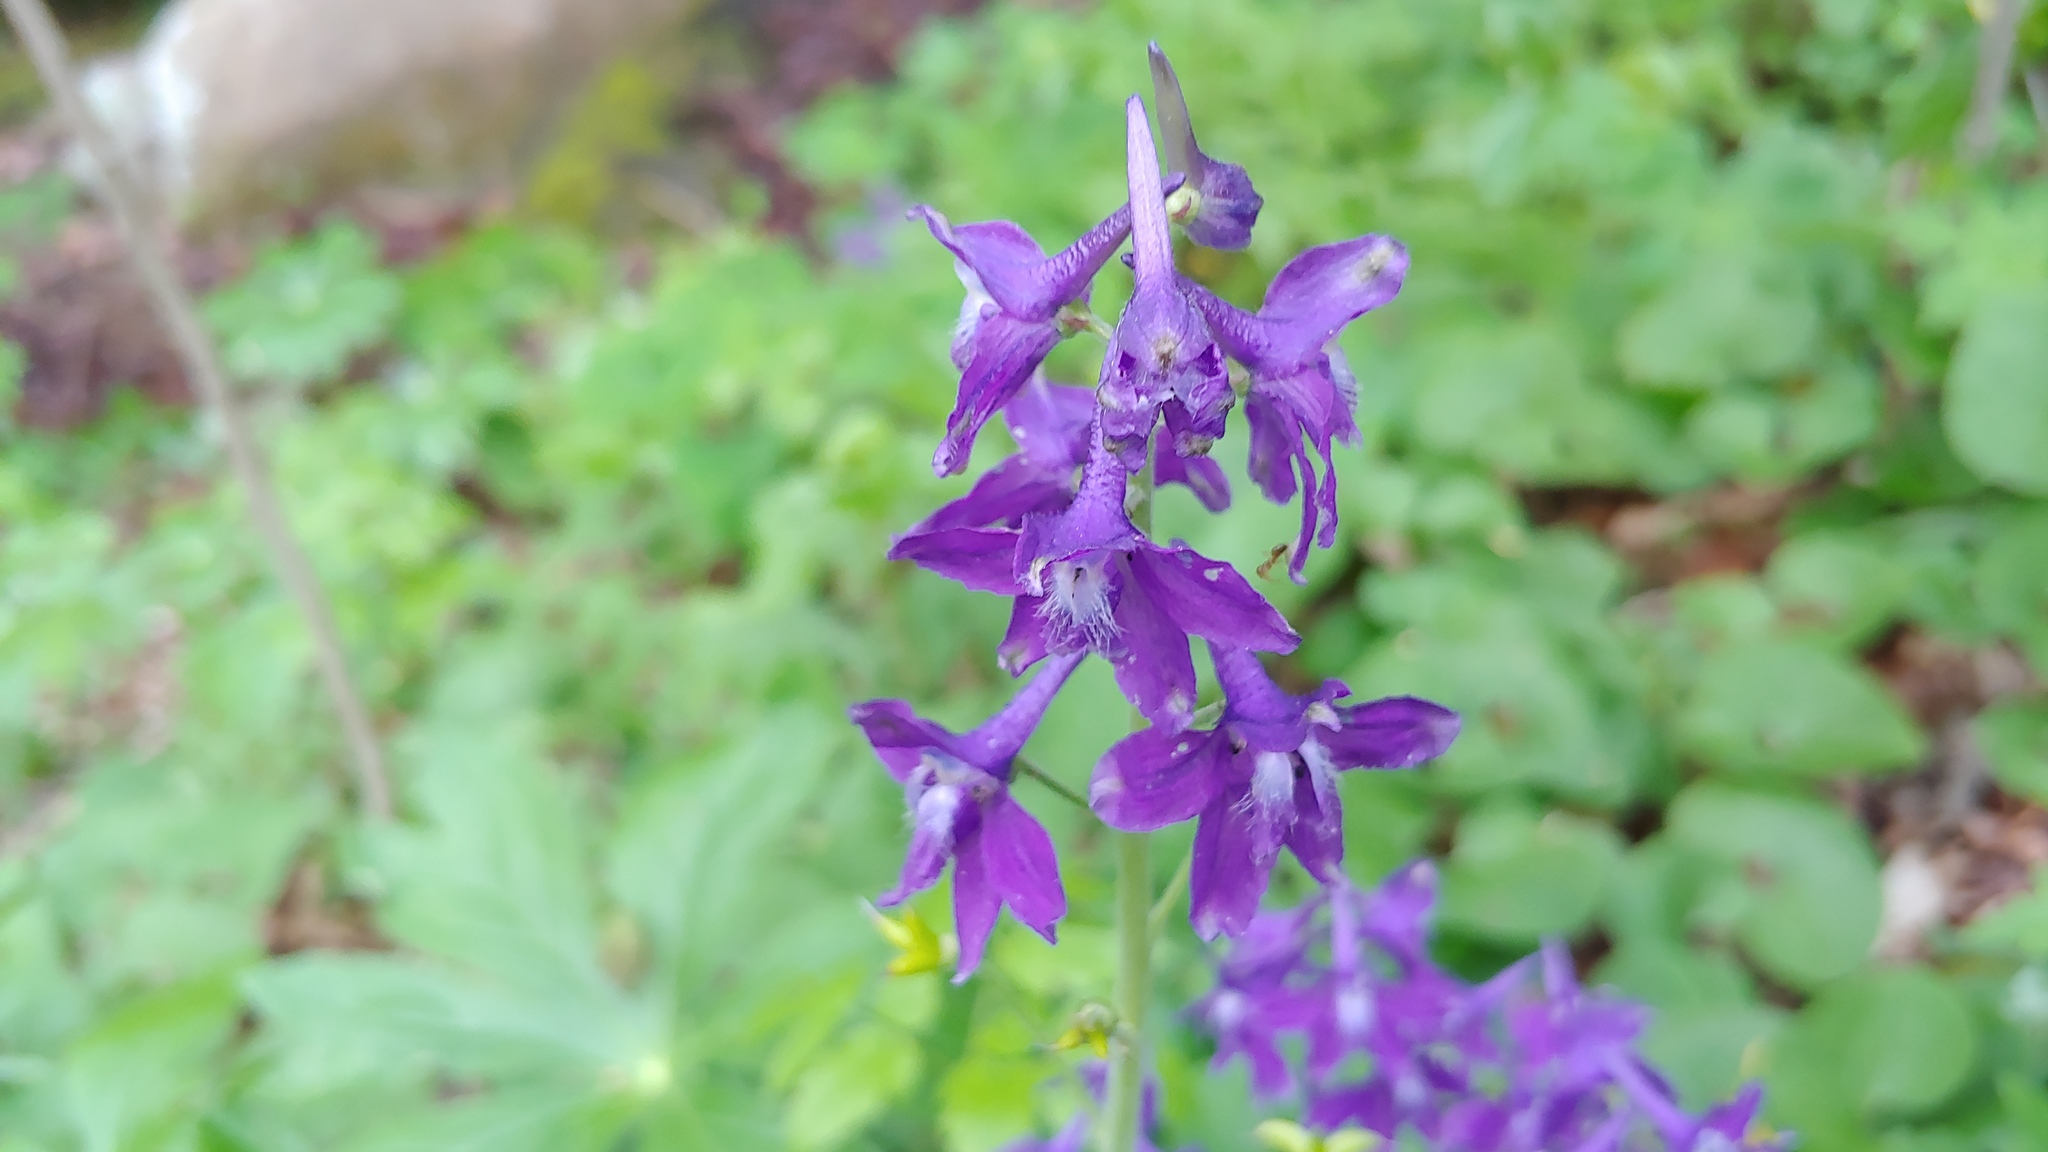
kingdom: Plantae
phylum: Tracheophyta
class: Magnoliopsida
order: Ranunculales
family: Ranunculaceae
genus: Delphinium
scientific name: Delphinium tricorne
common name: Dwarf larkspur
